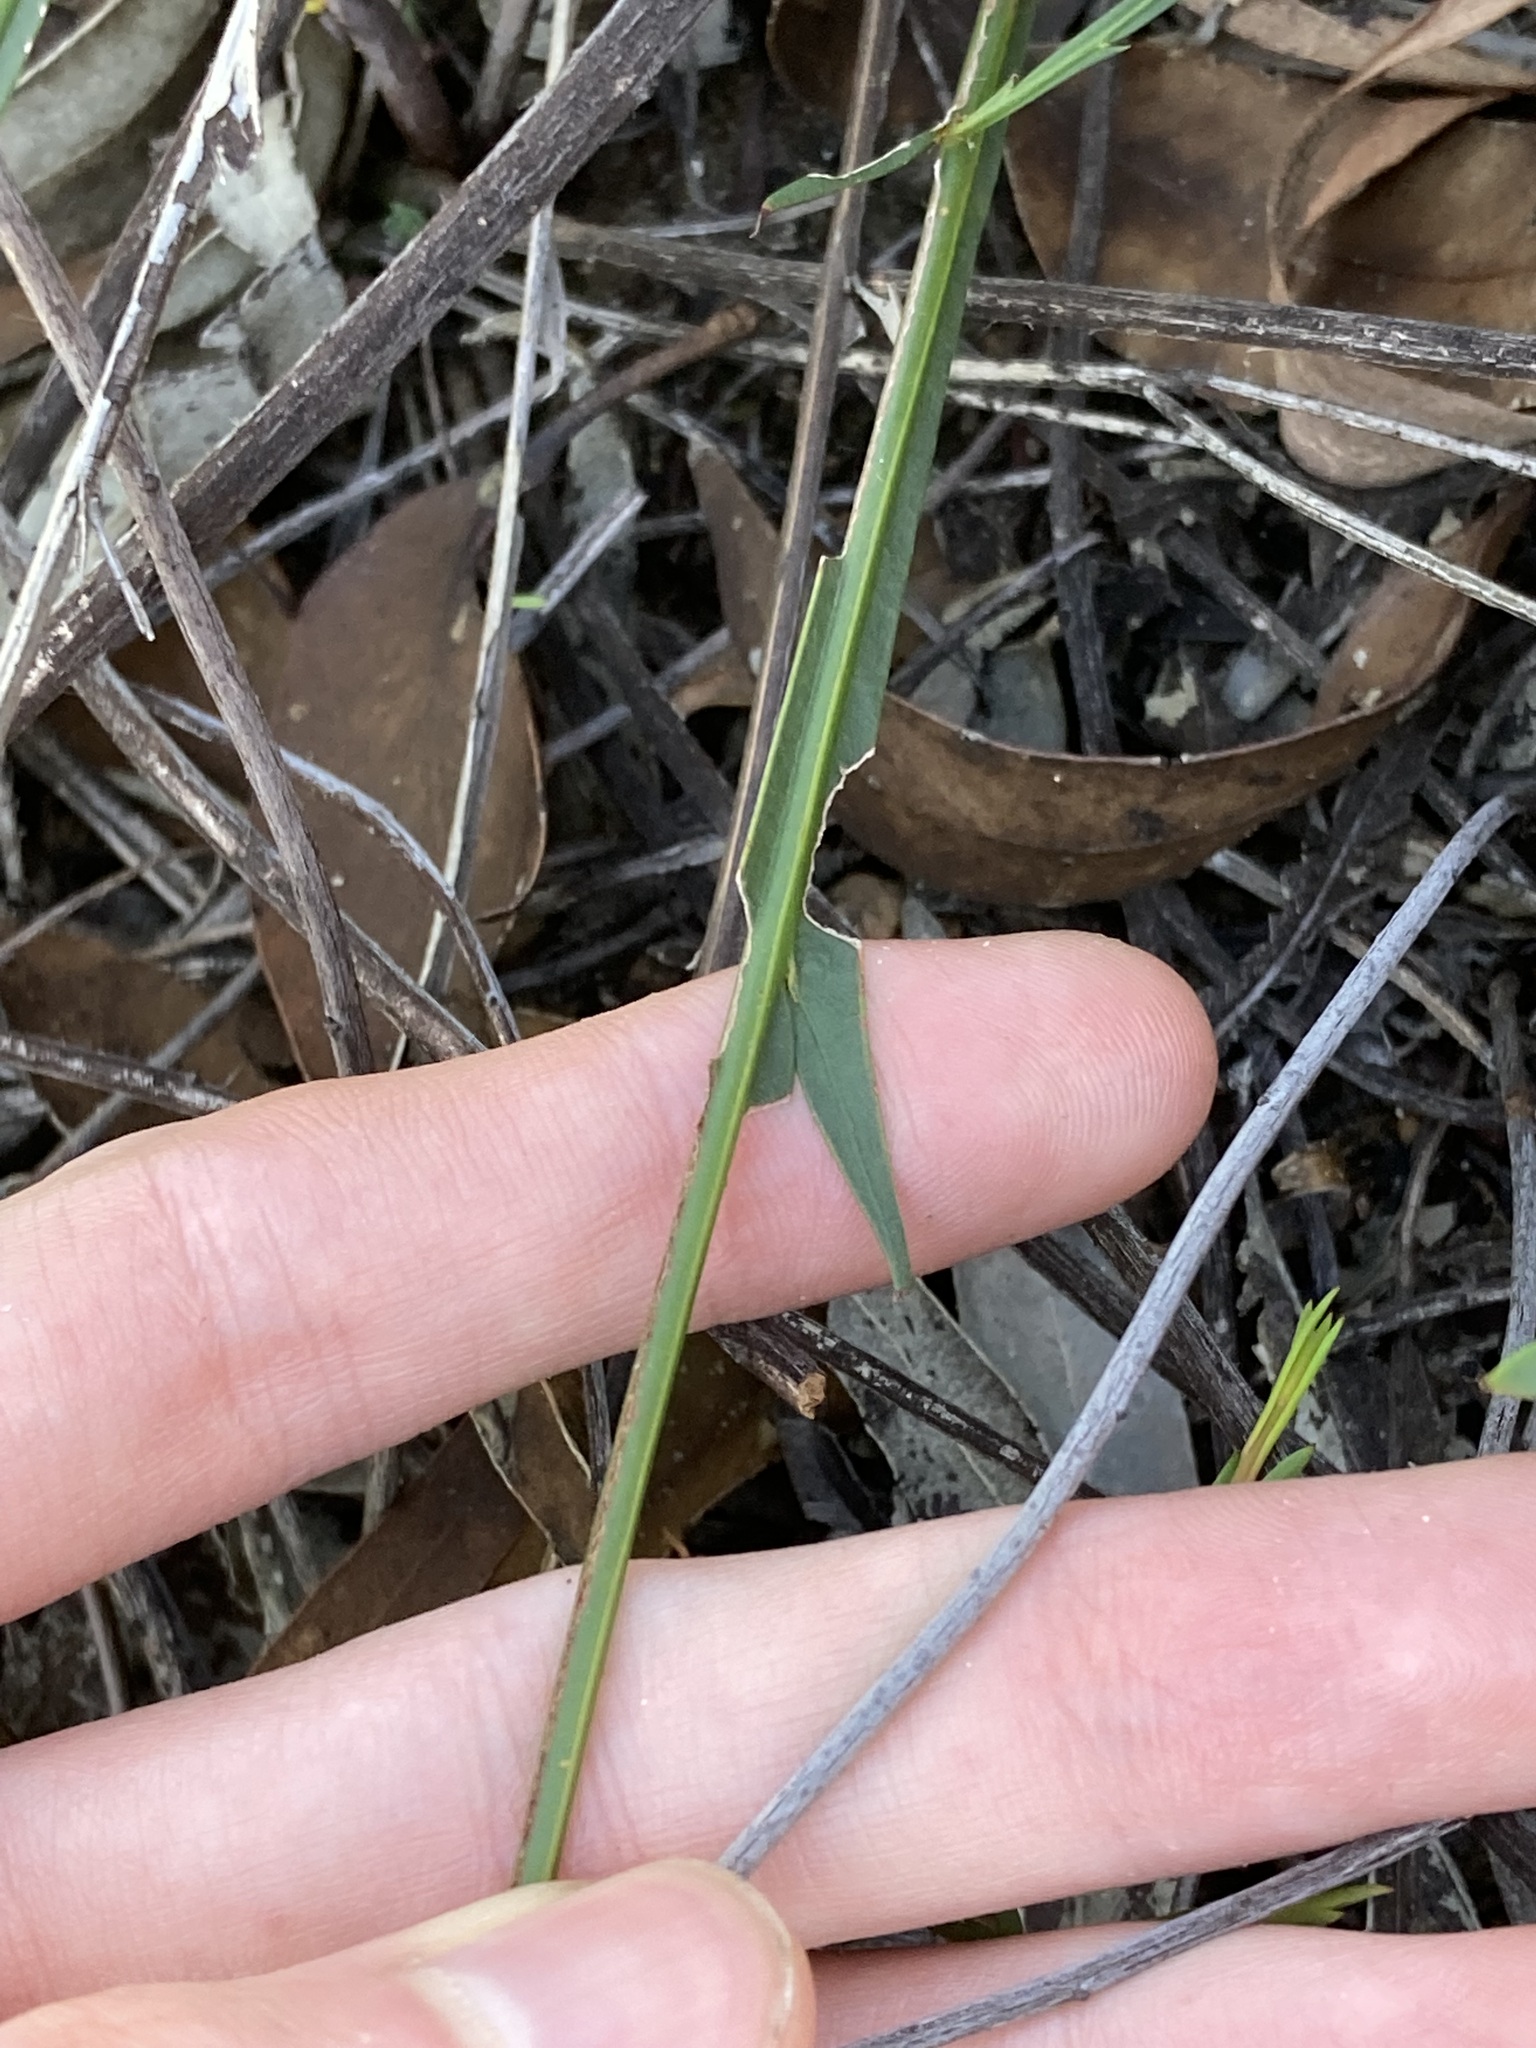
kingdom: Plantae
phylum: Tracheophyta
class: Magnoliopsida
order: Fabales
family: Fabaceae
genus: Acacia
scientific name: Acacia applanata
